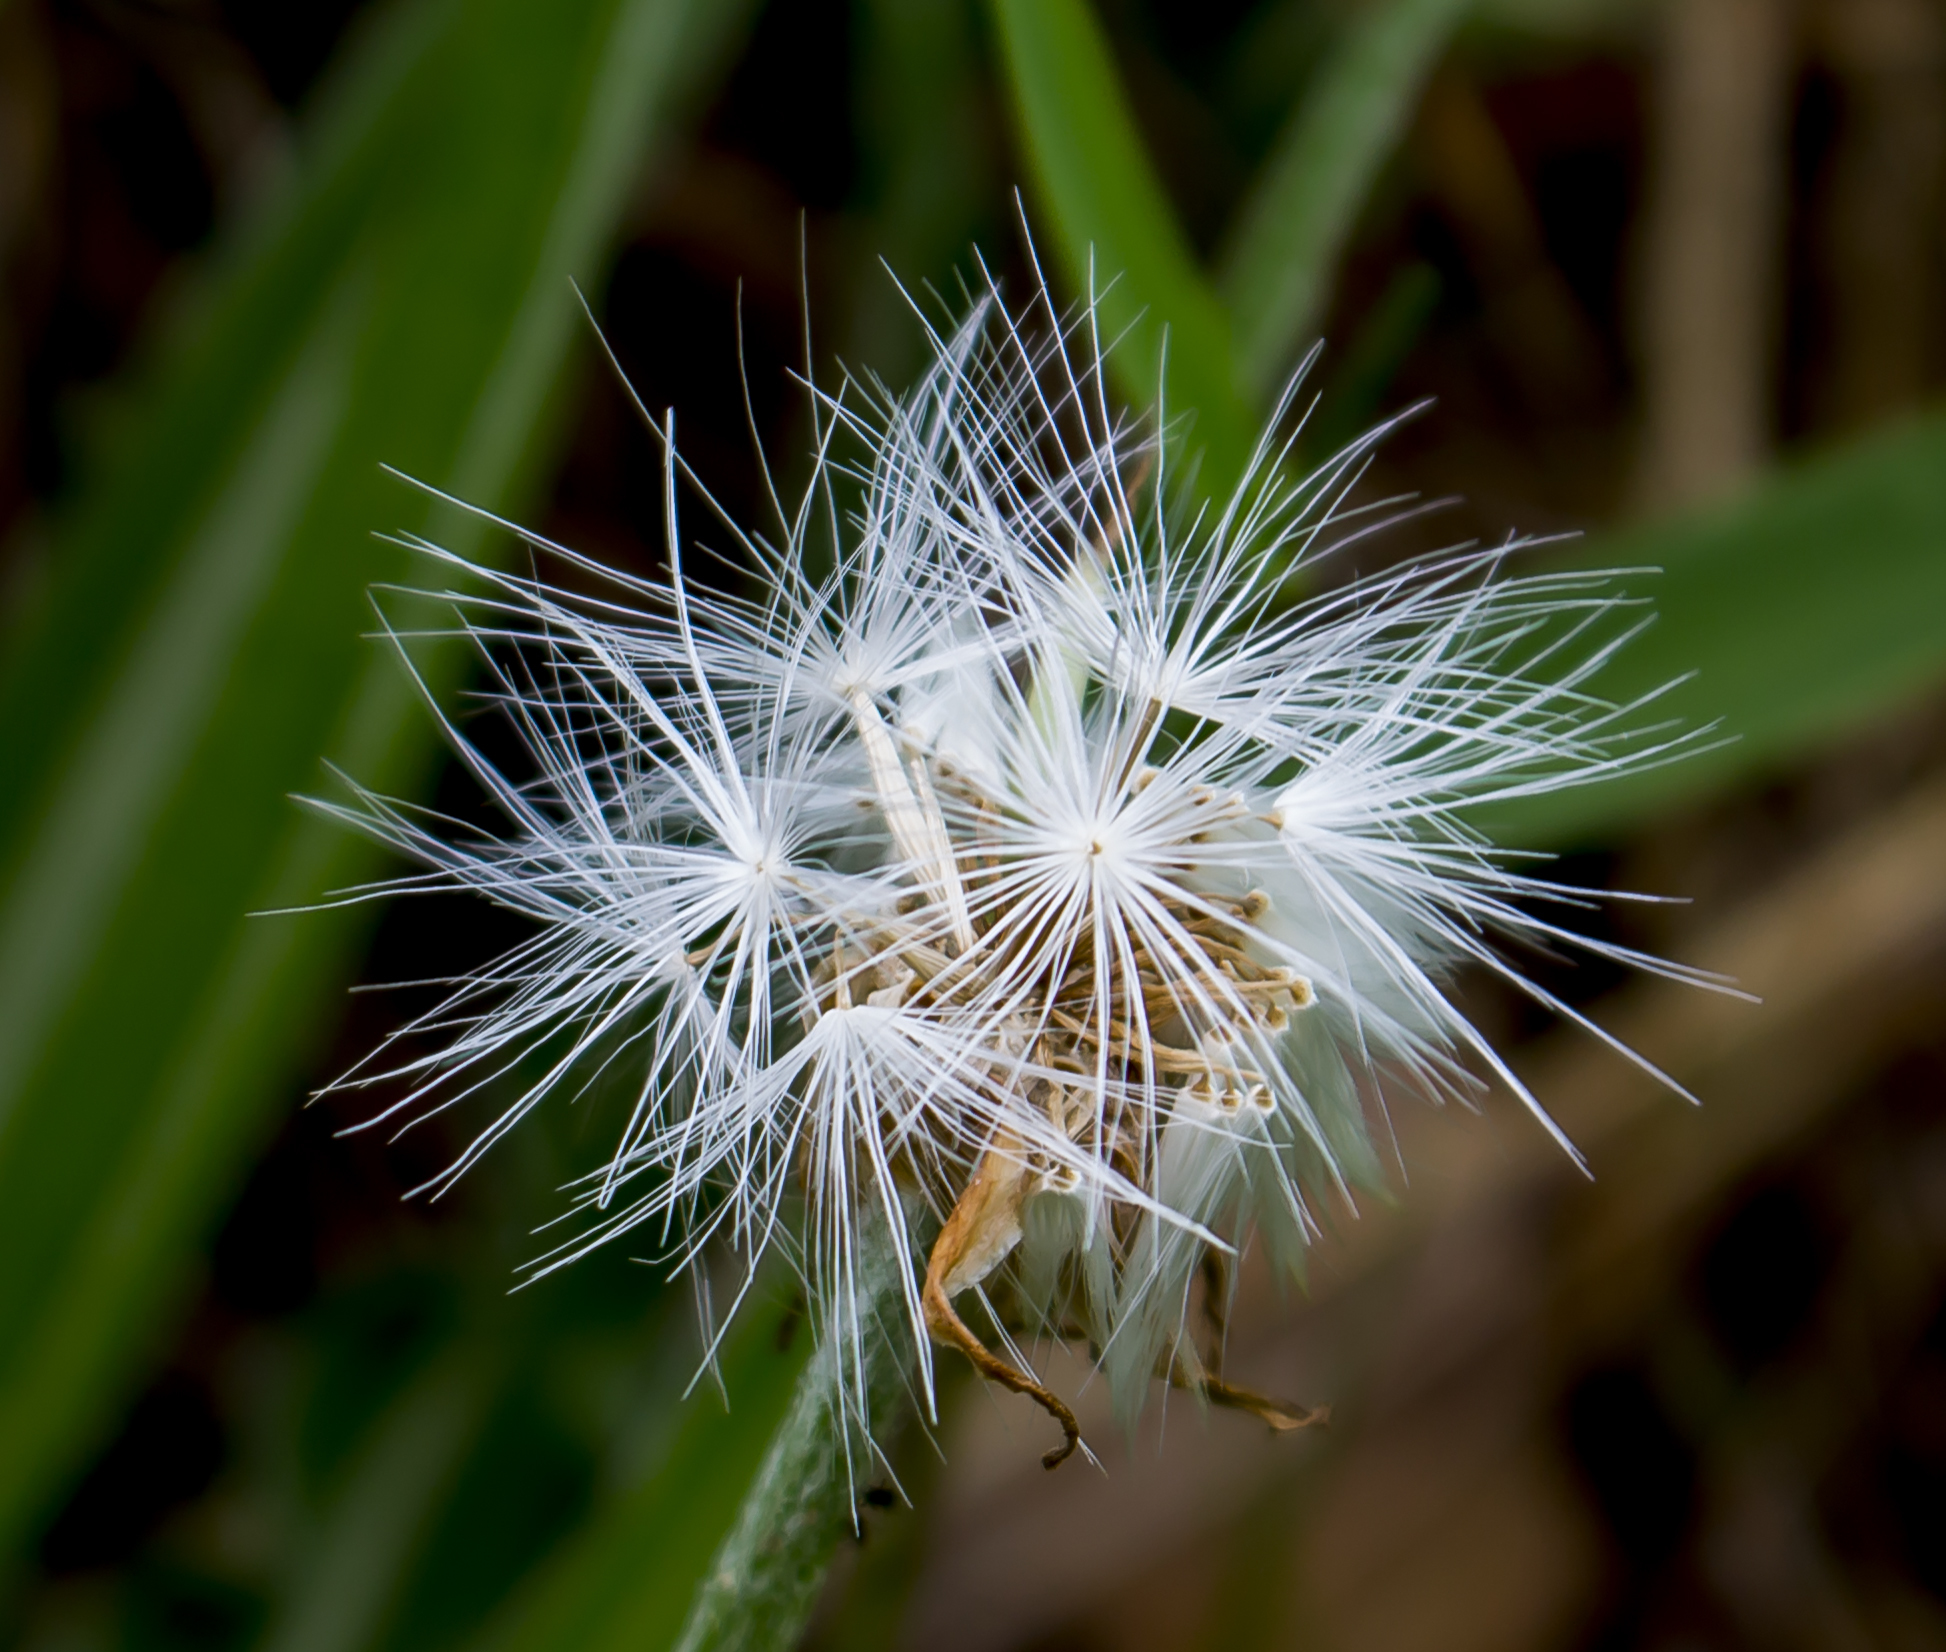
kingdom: Plantae
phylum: Tracheophyta
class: Magnoliopsida
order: Asterales
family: Asteraceae
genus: Microseris
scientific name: Microseris cuspidata
